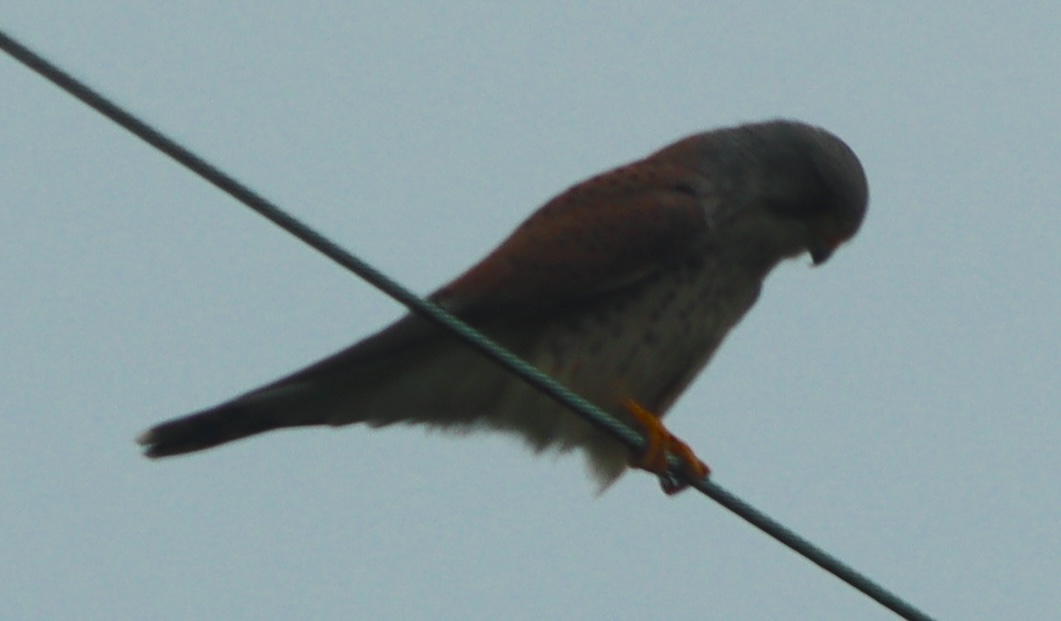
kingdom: Animalia
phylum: Chordata
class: Aves
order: Falconiformes
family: Falconidae
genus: Falco
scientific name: Falco tinnunculus
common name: Common kestrel
